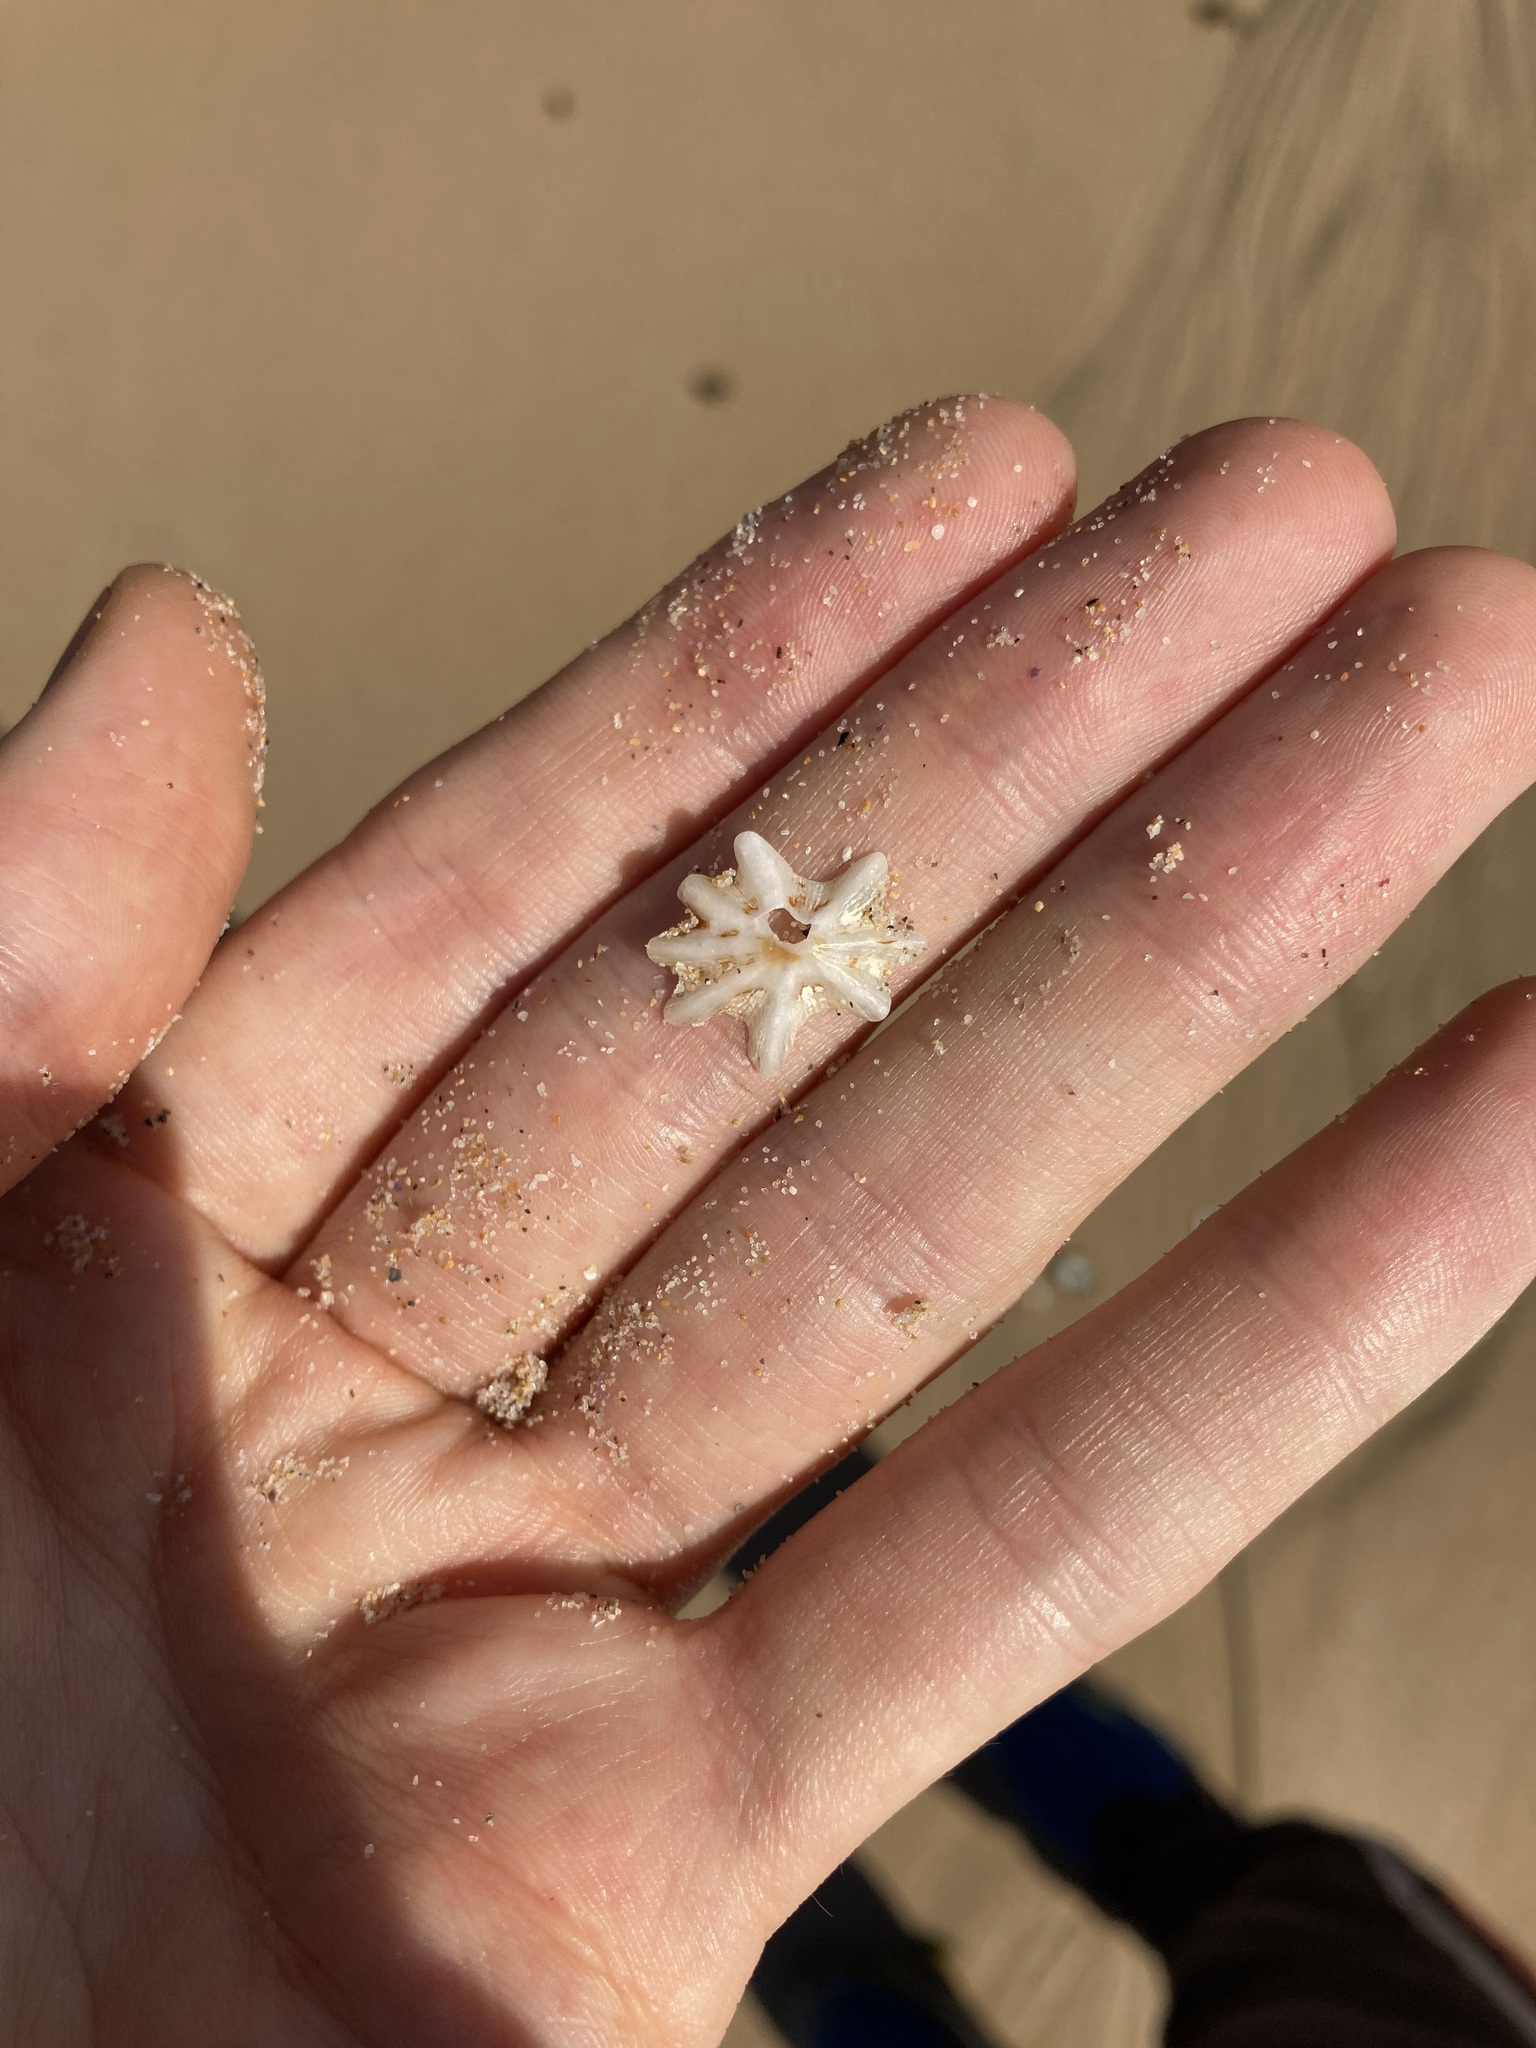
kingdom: Animalia
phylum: Mollusca
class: Gastropoda
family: Patellidae
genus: Scutellastra
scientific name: Scutellastra chapmani
